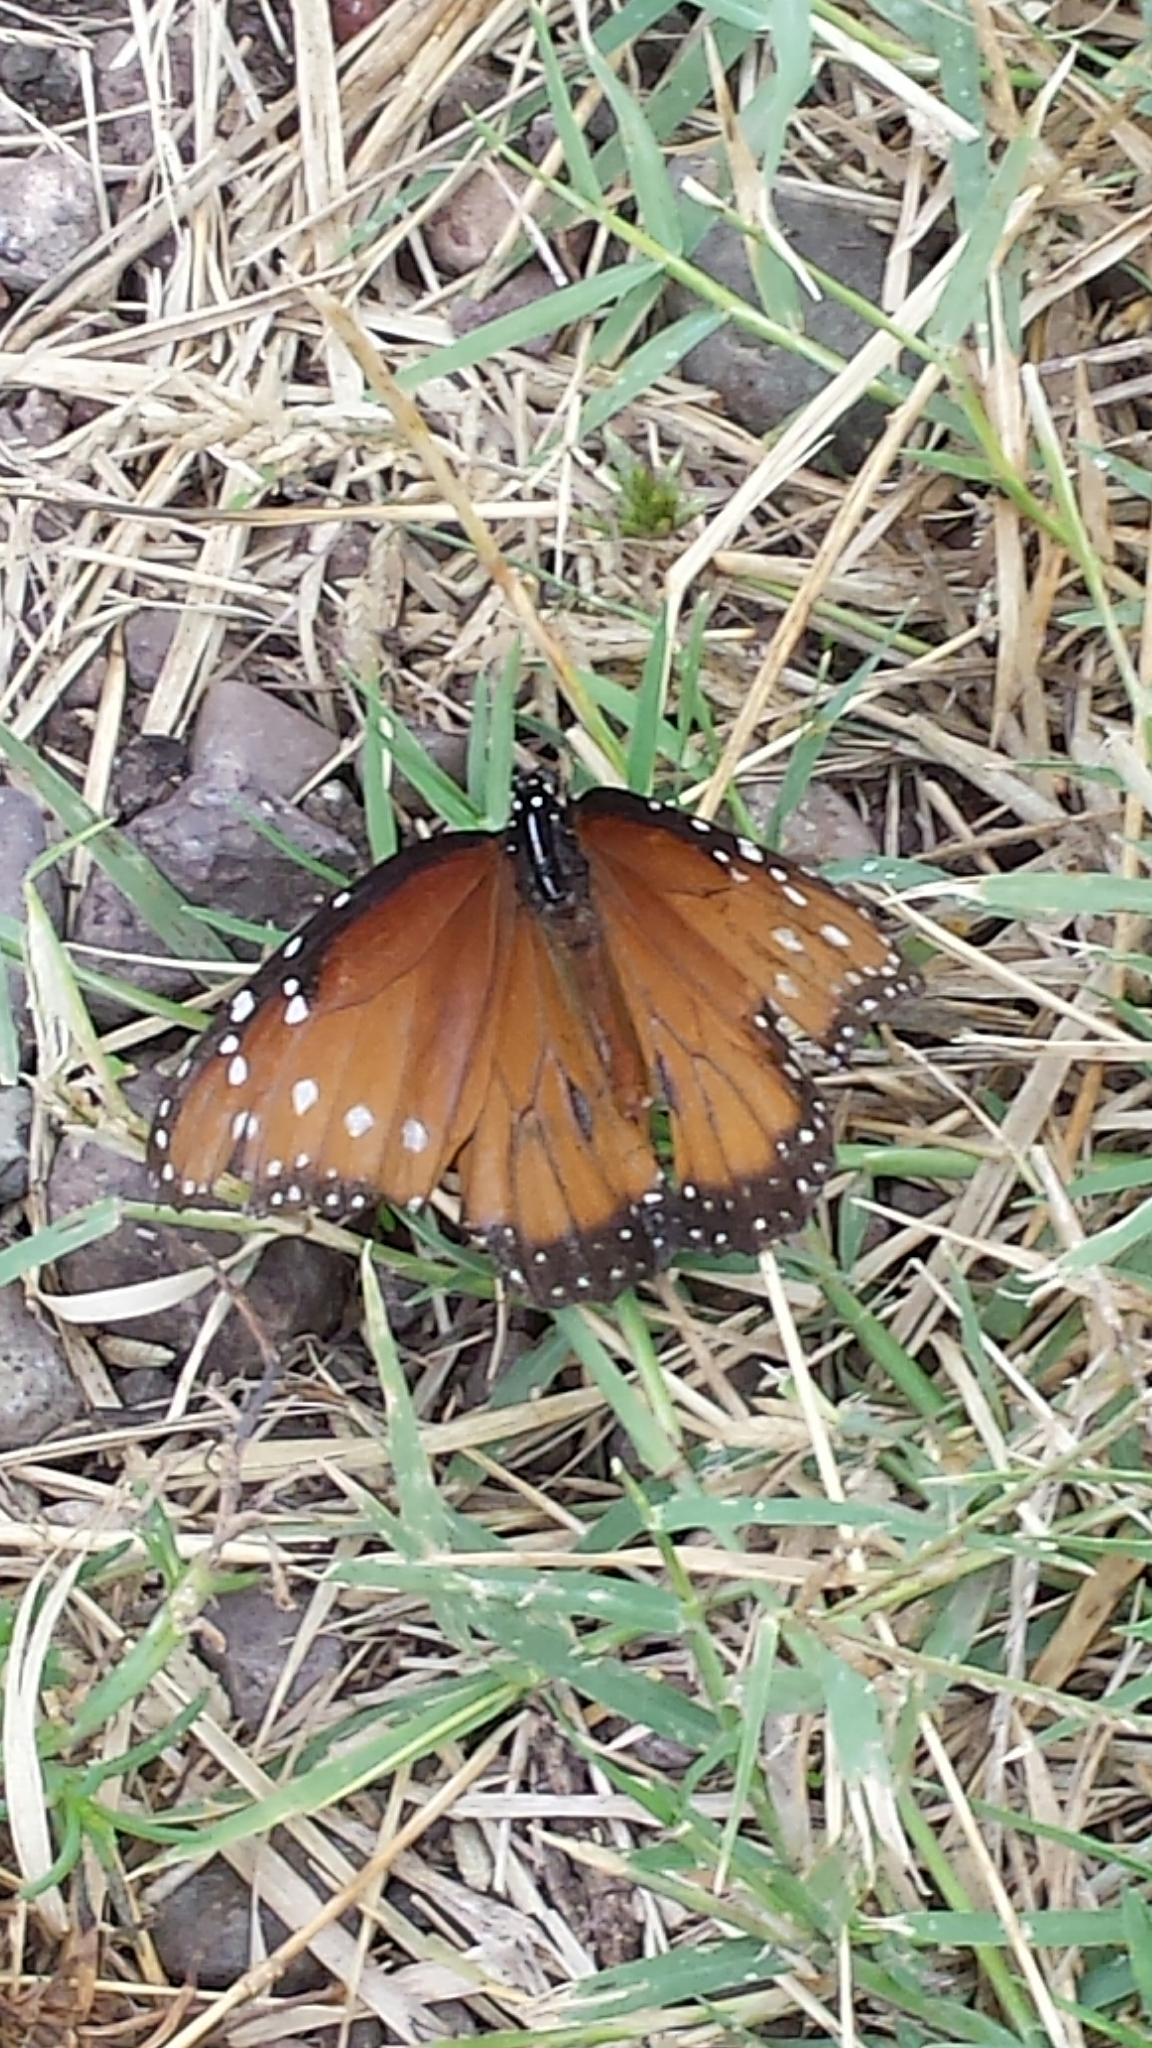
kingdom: Animalia
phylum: Arthropoda
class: Insecta
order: Lepidoptera
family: Nymphalidae
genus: Danaus
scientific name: Danaus gilippus
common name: Queen
